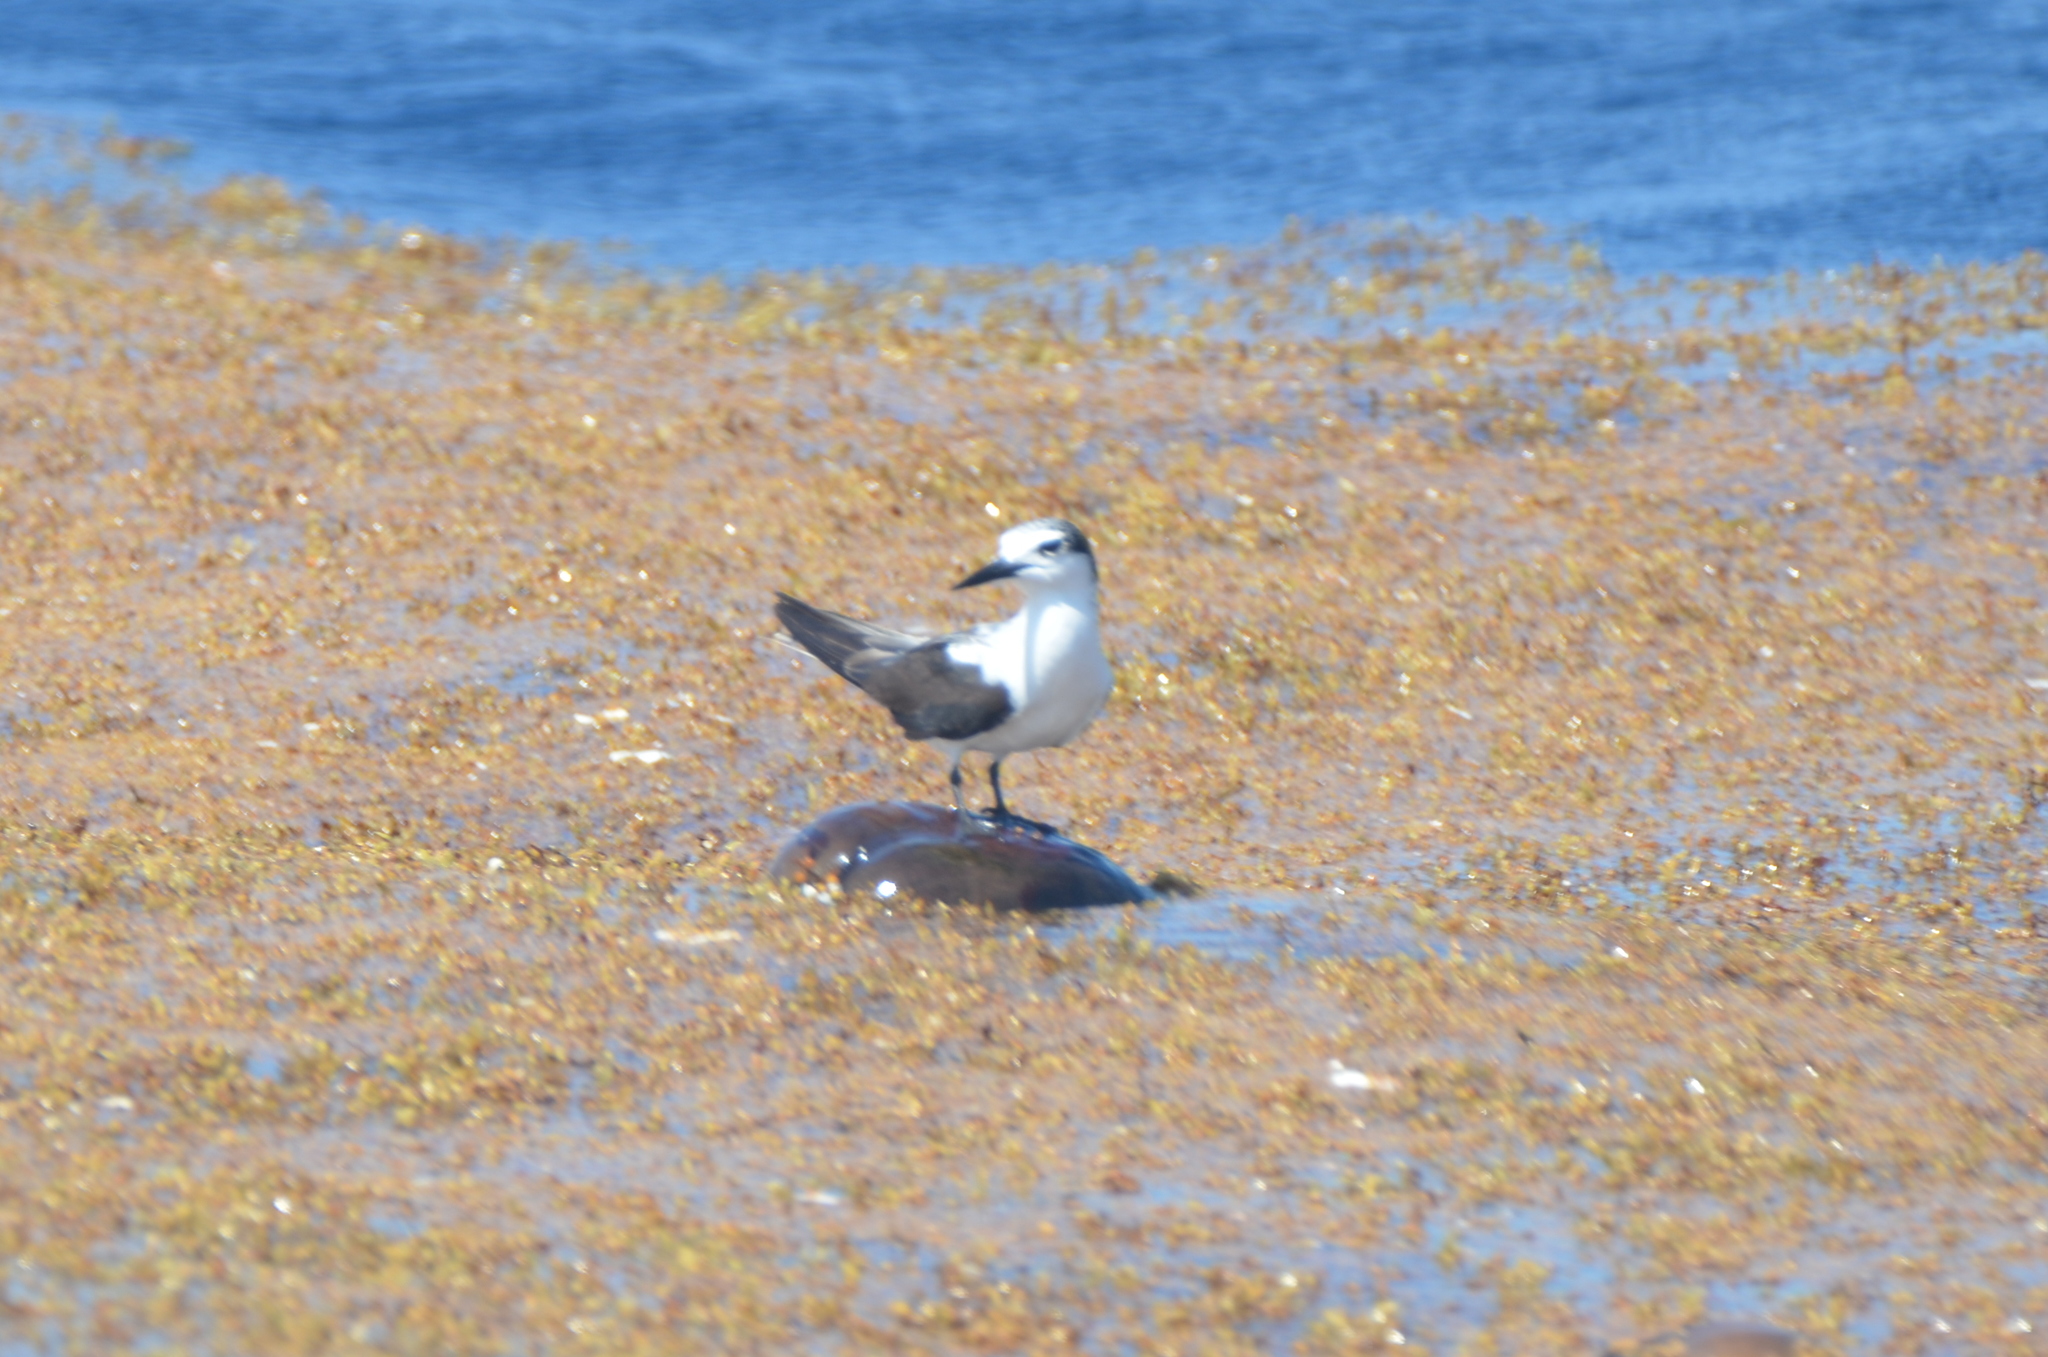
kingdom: Animalia
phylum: Chordata
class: Aves
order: Charadriiformes
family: Laridae
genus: Onychoprion
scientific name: Onychoprion anaethetus
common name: Bridled tern
